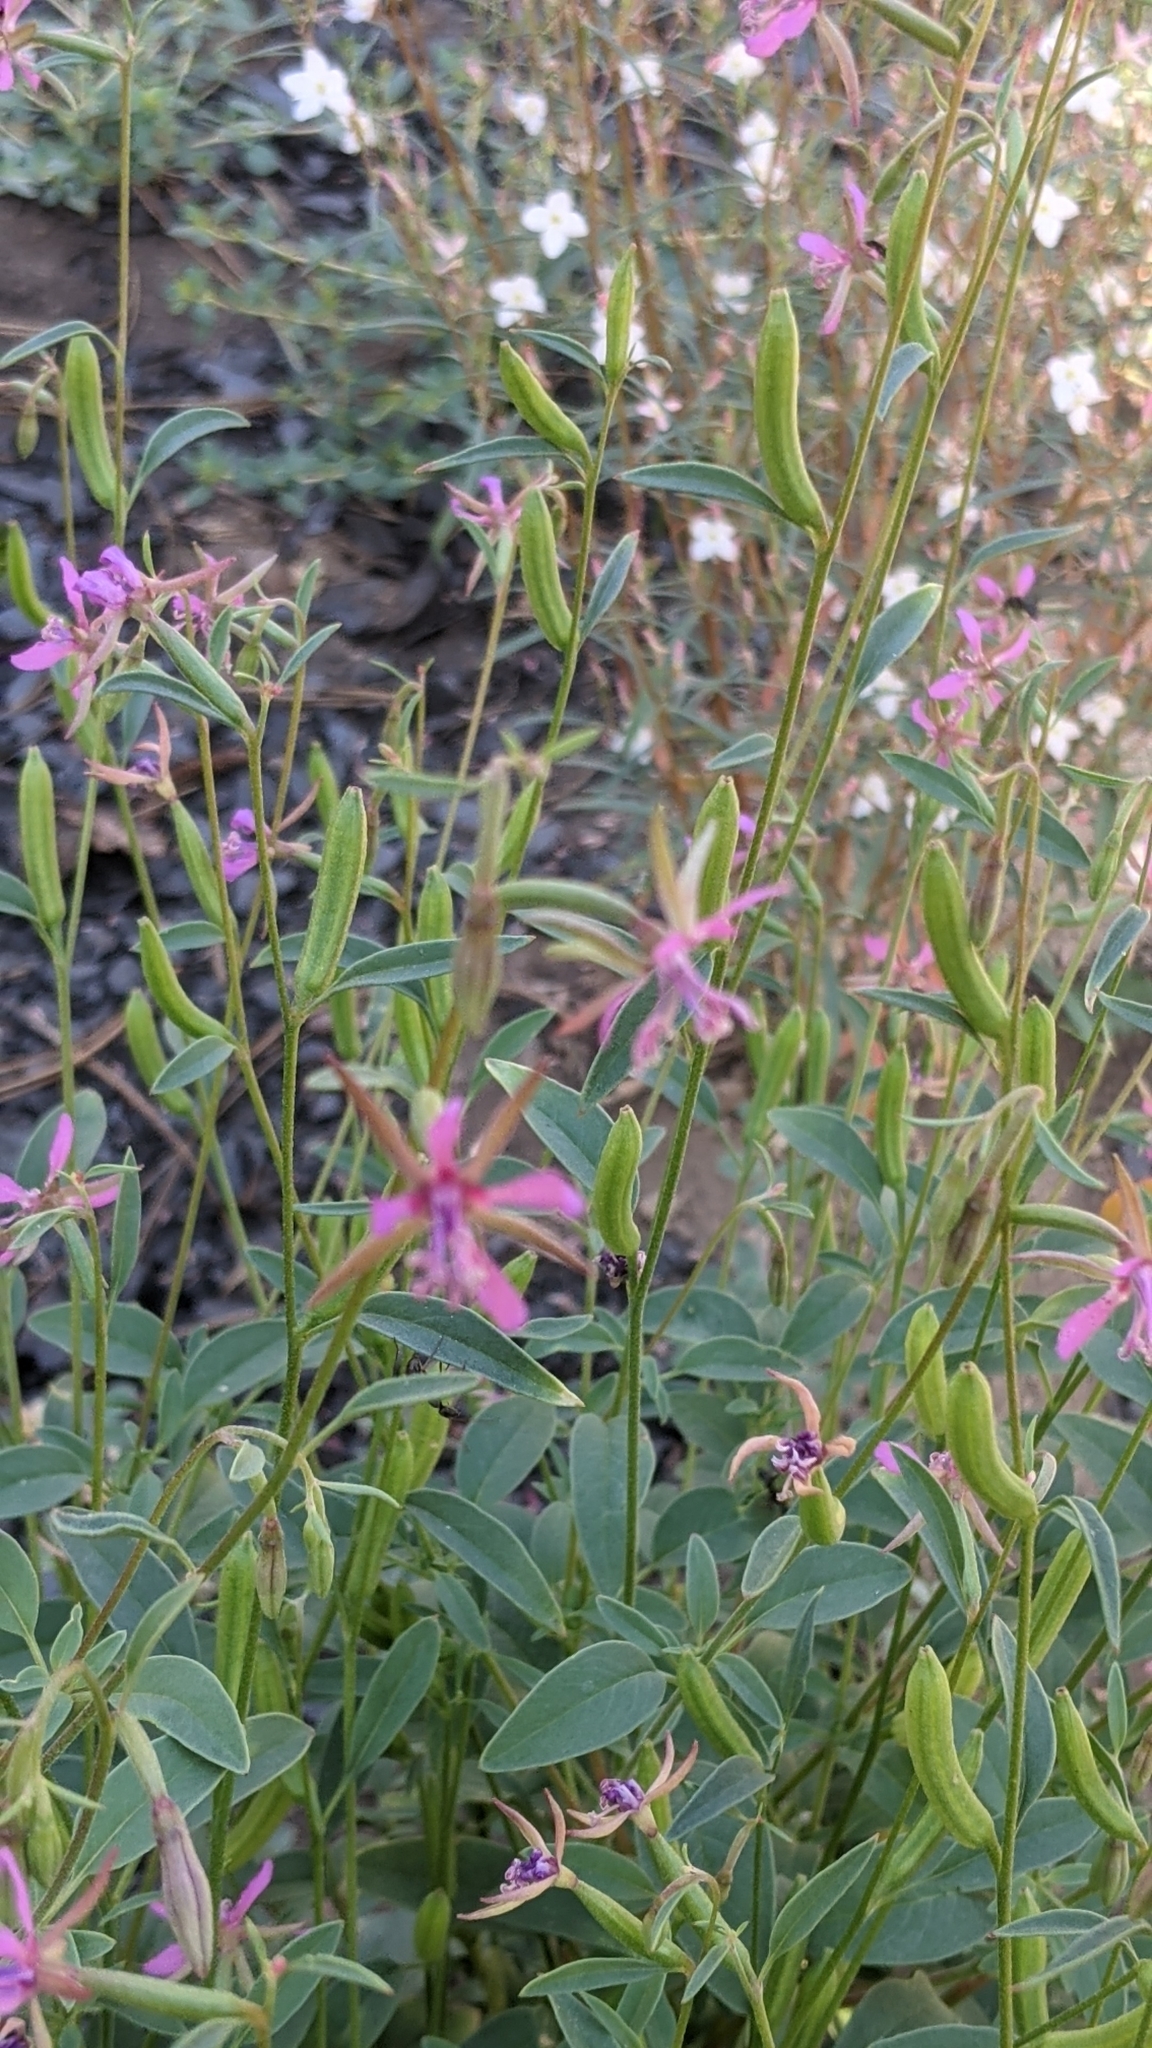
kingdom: Plantae
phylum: Tracheophyta
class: Magnoliopsida
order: Myrtales
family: Onagraceae
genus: Clarkia
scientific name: Clarkia rhomboidea
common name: Broadleaf clarkia
